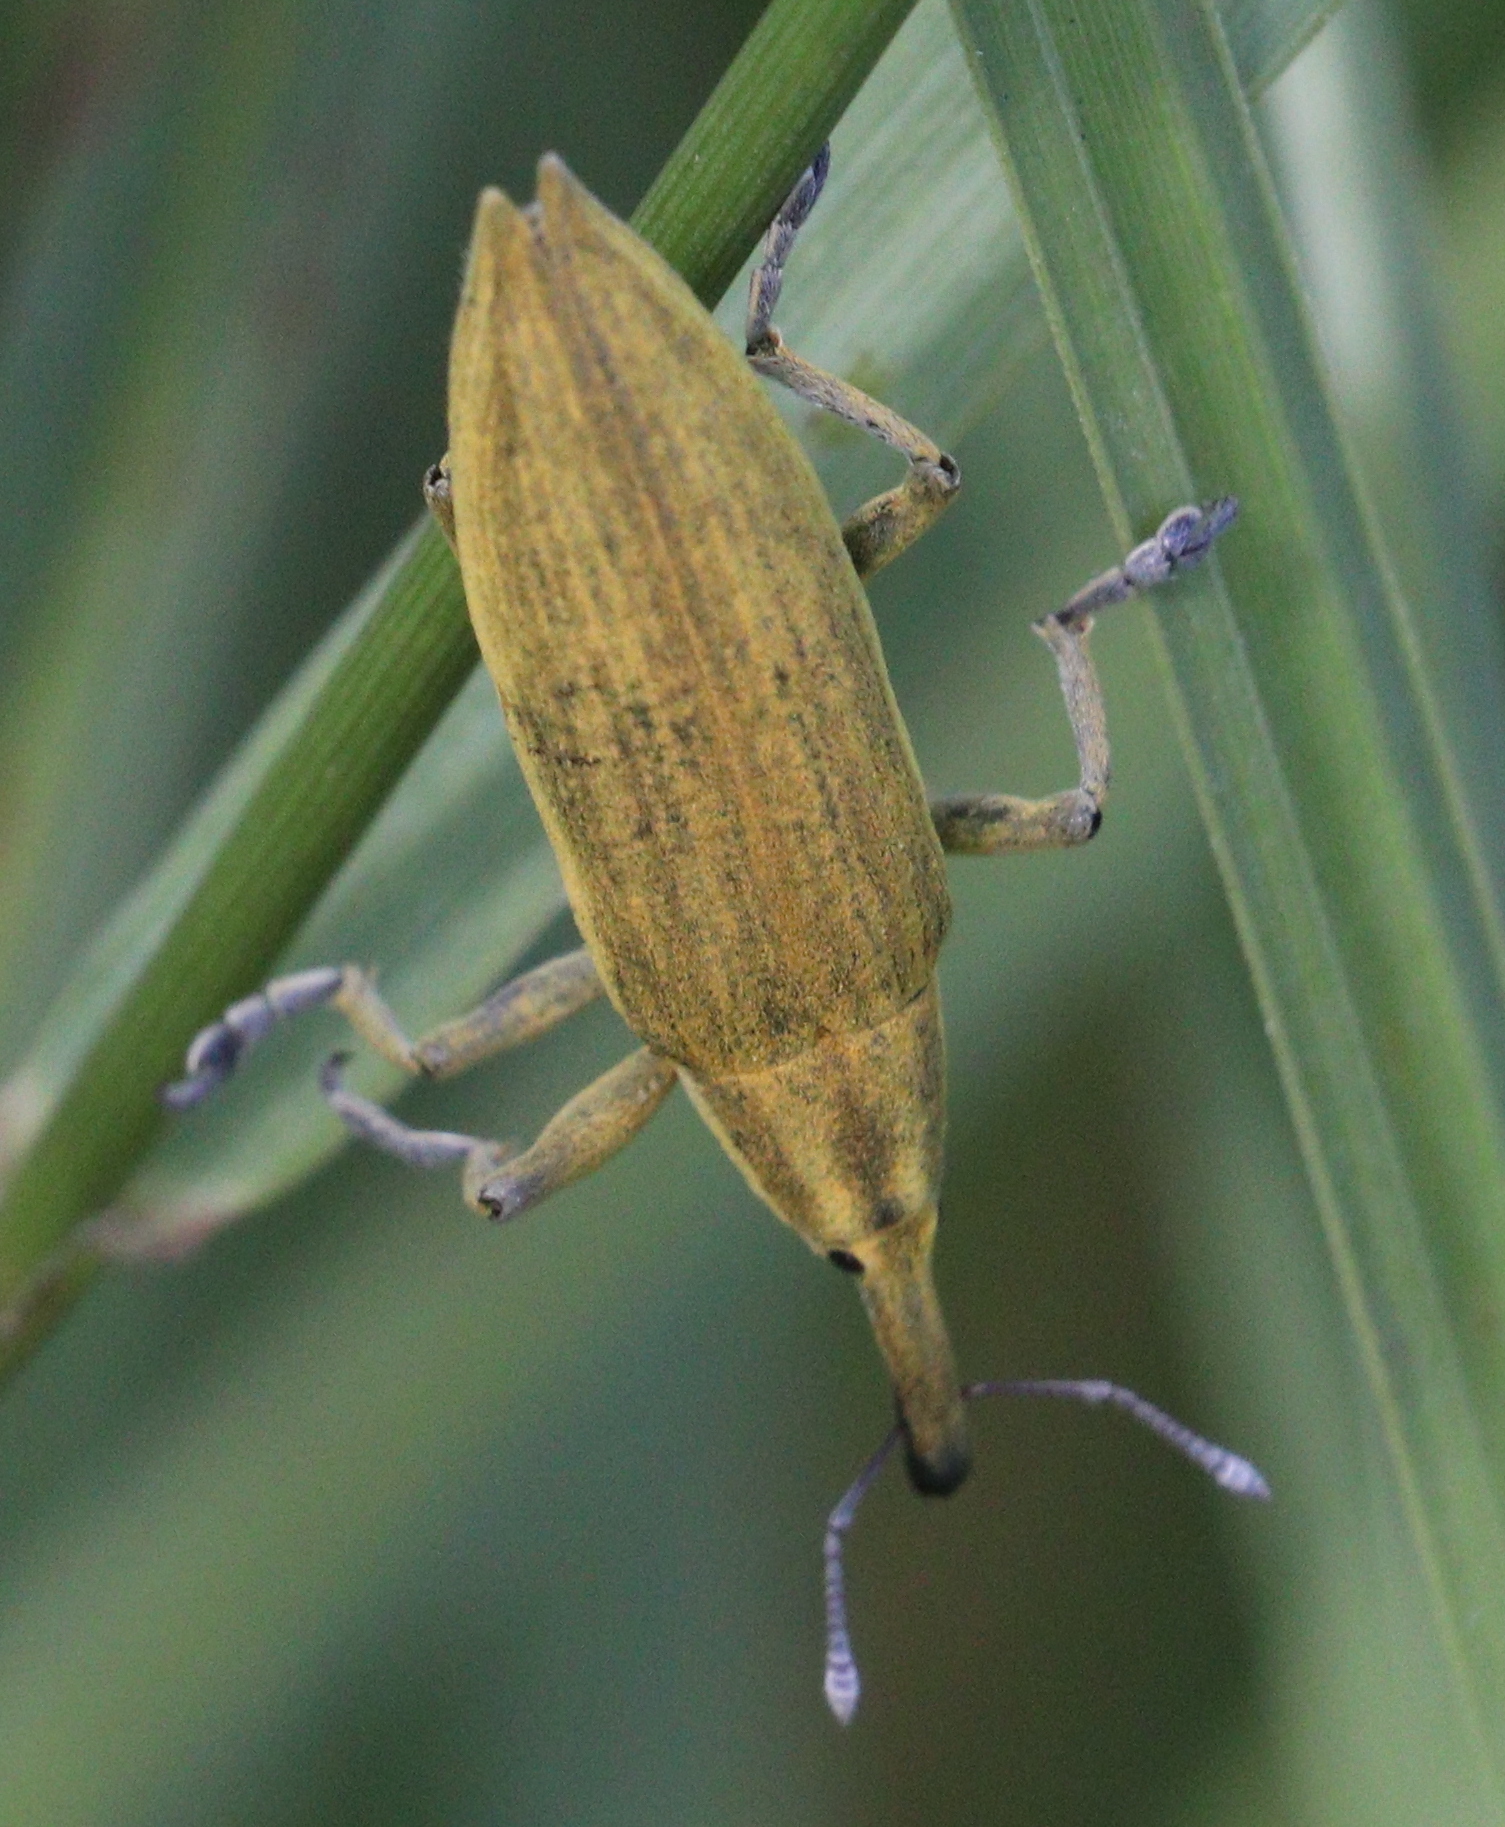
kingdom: Animalia
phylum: Arthropoda
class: Insecta
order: Coleoptera
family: Curculionidae
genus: Lixus
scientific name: Lixus iridis
